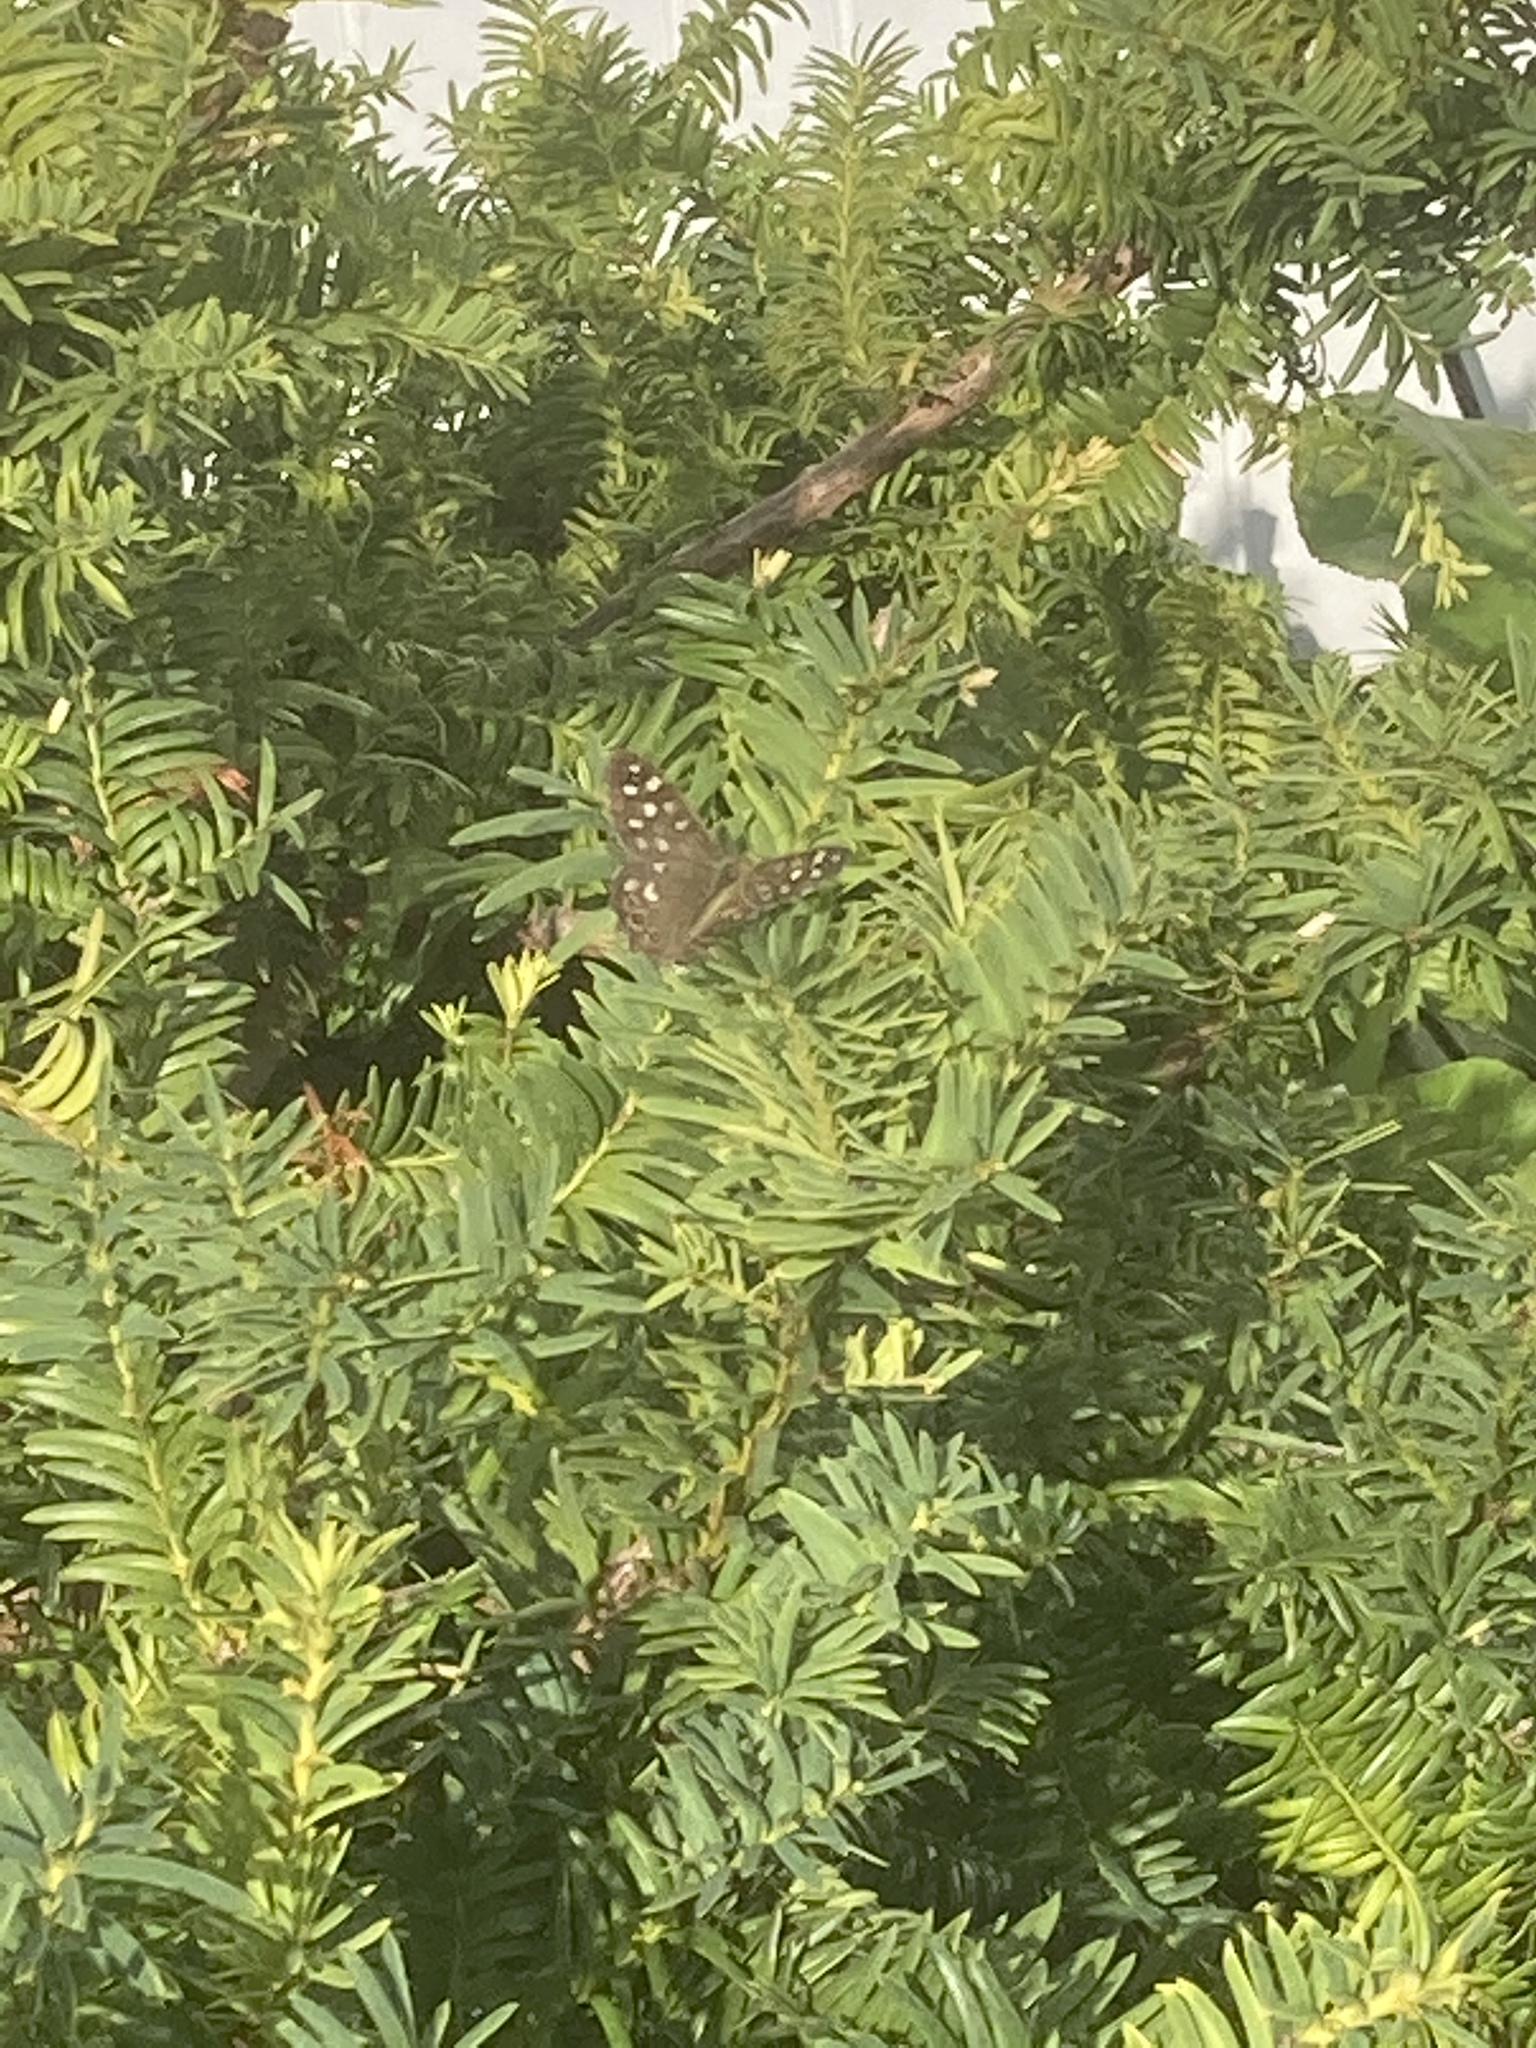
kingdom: Animalia
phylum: Arthropoda
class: Insecta
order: Lepidoptera
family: Nymphalidae
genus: Pararge
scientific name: Pararge aegeria
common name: Speckled wood
